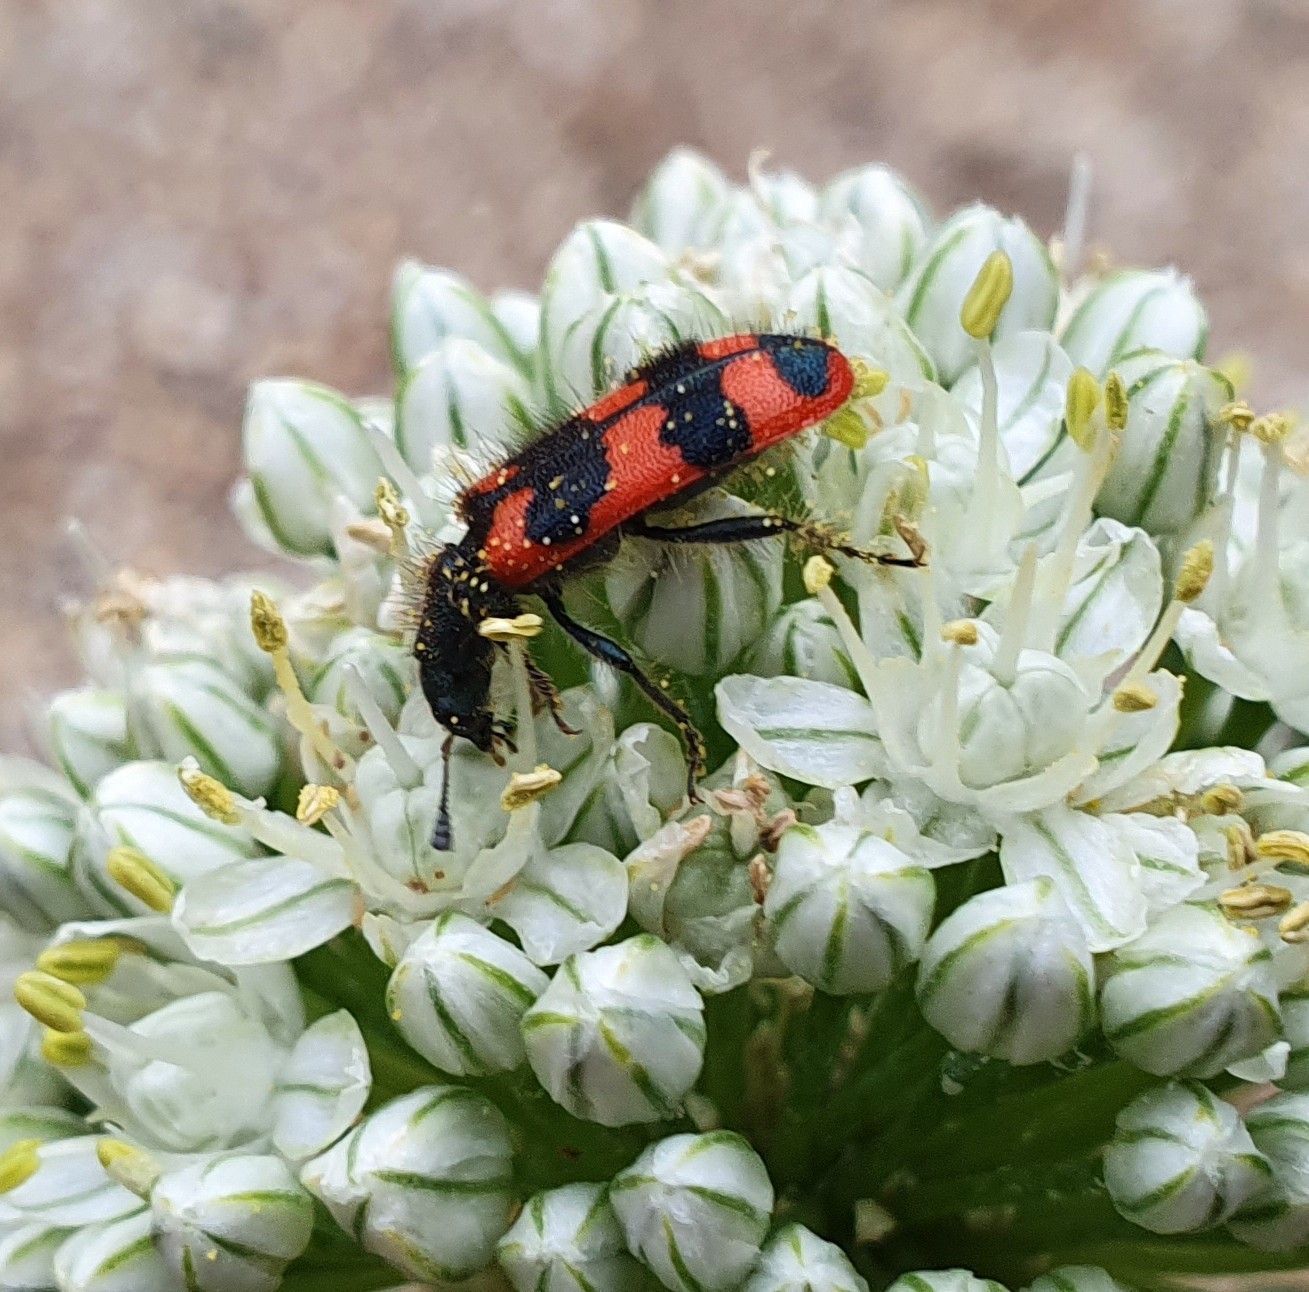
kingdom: Animalia
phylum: Arthropoda
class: Insecta
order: Coleoptera
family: Cleridae
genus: Trichodes
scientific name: Trichodes alvearius
